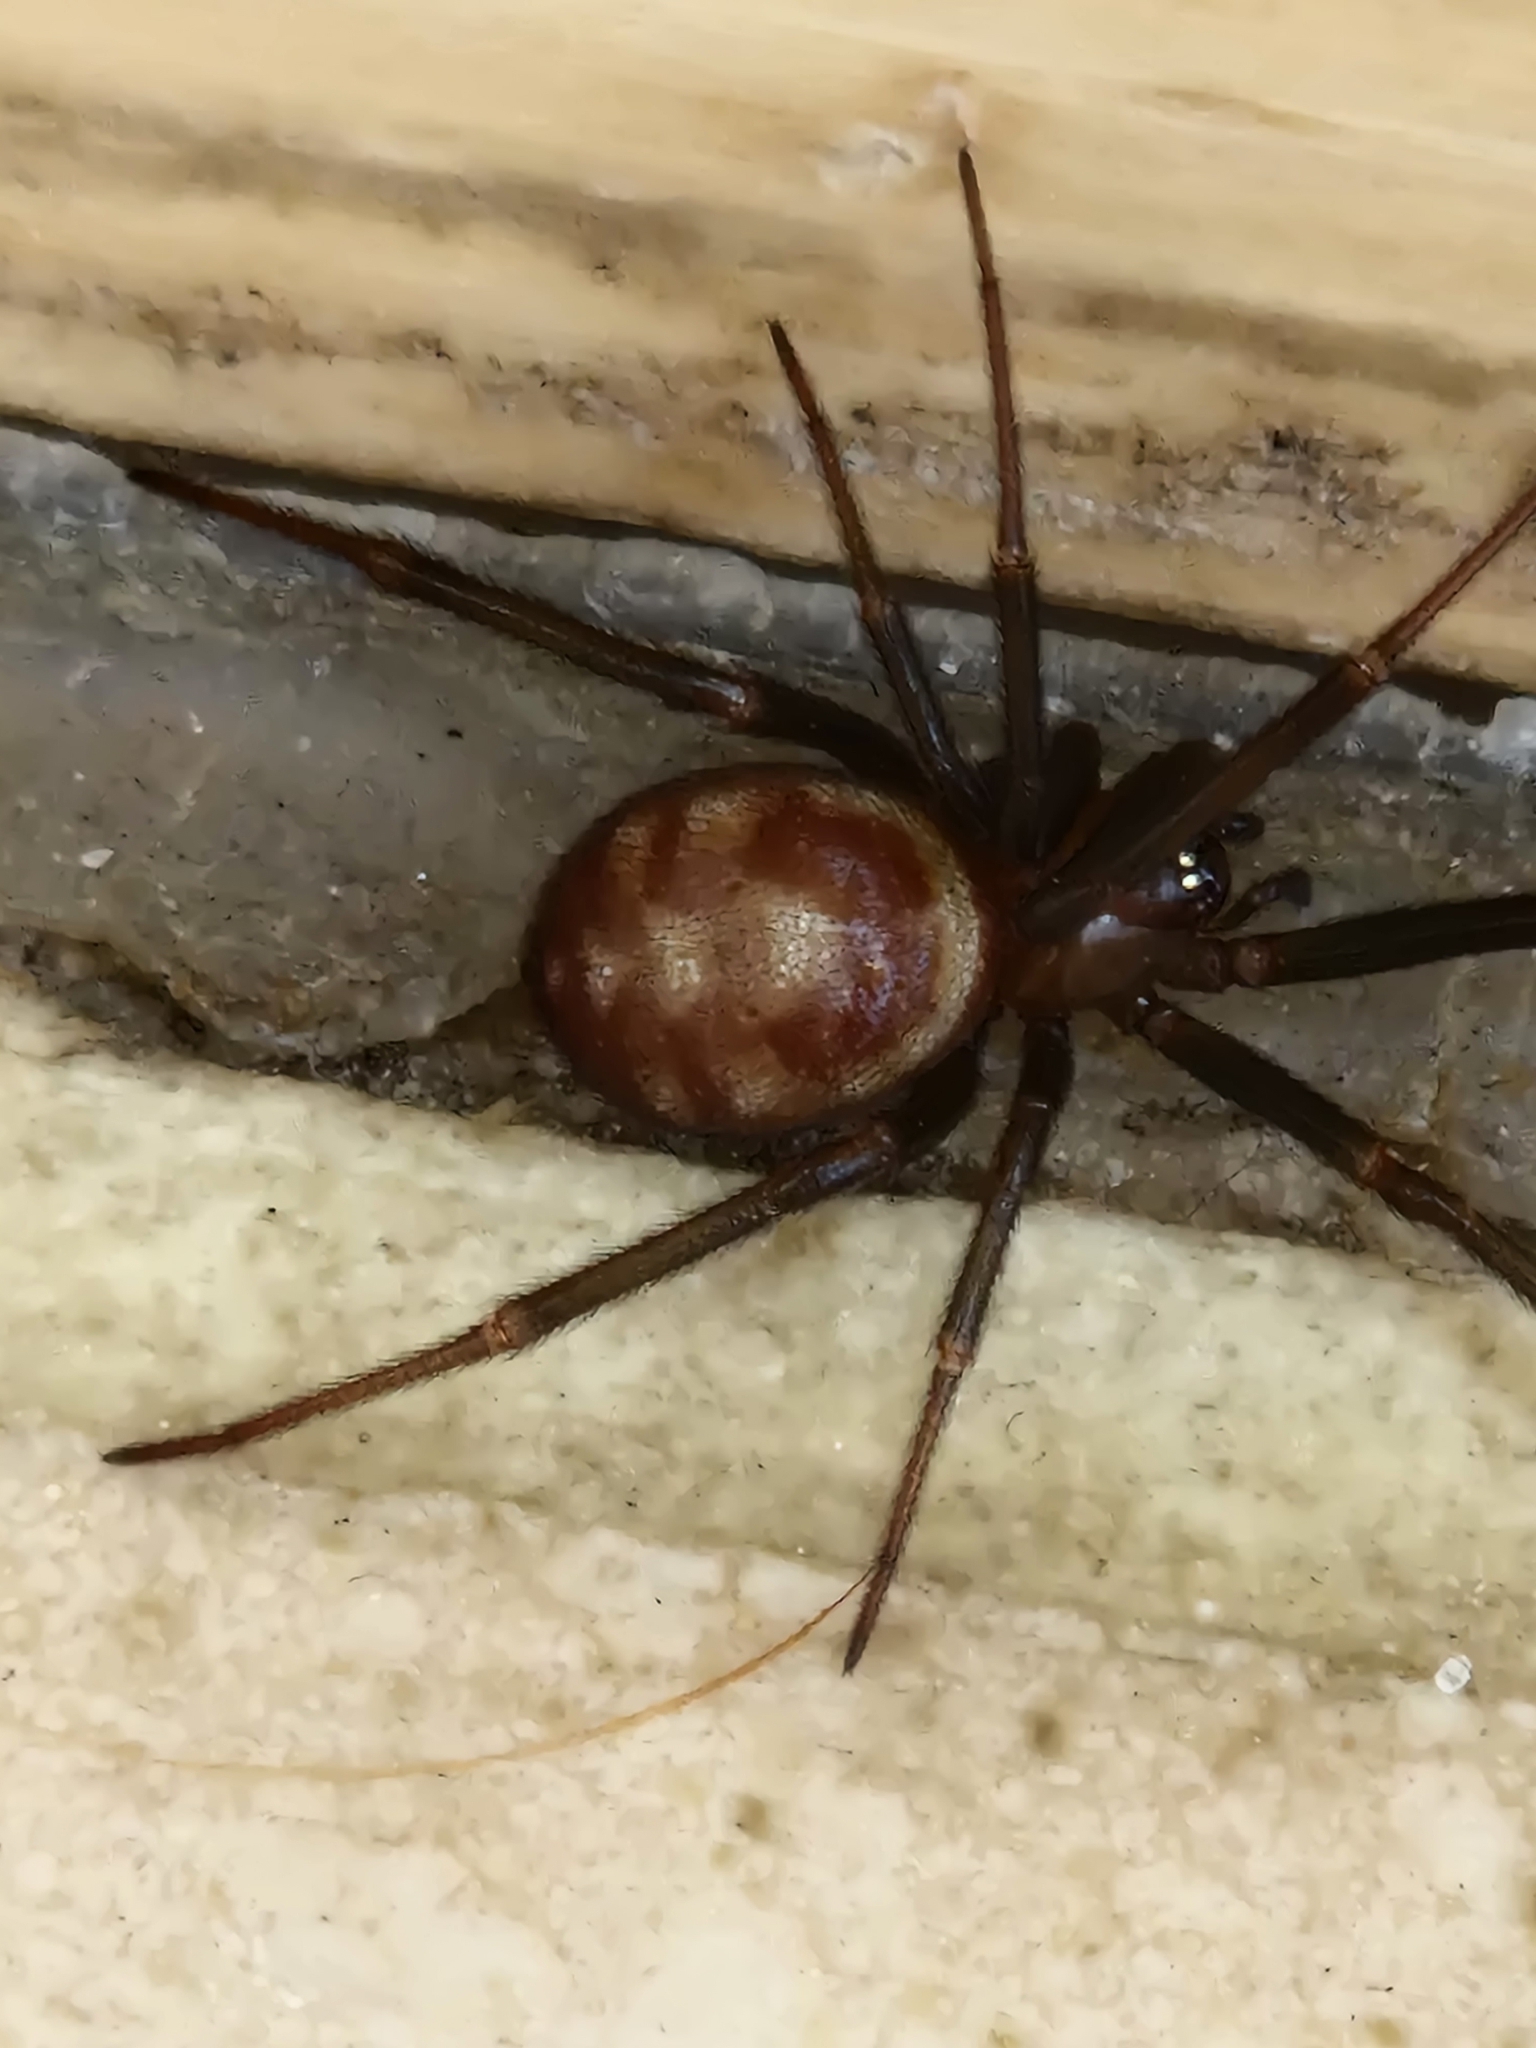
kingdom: Animalia
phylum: Arthropoda
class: Arachnida
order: Araneae
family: Theridiidae
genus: Steatoda
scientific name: Steatoda grossa
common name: False black widow
